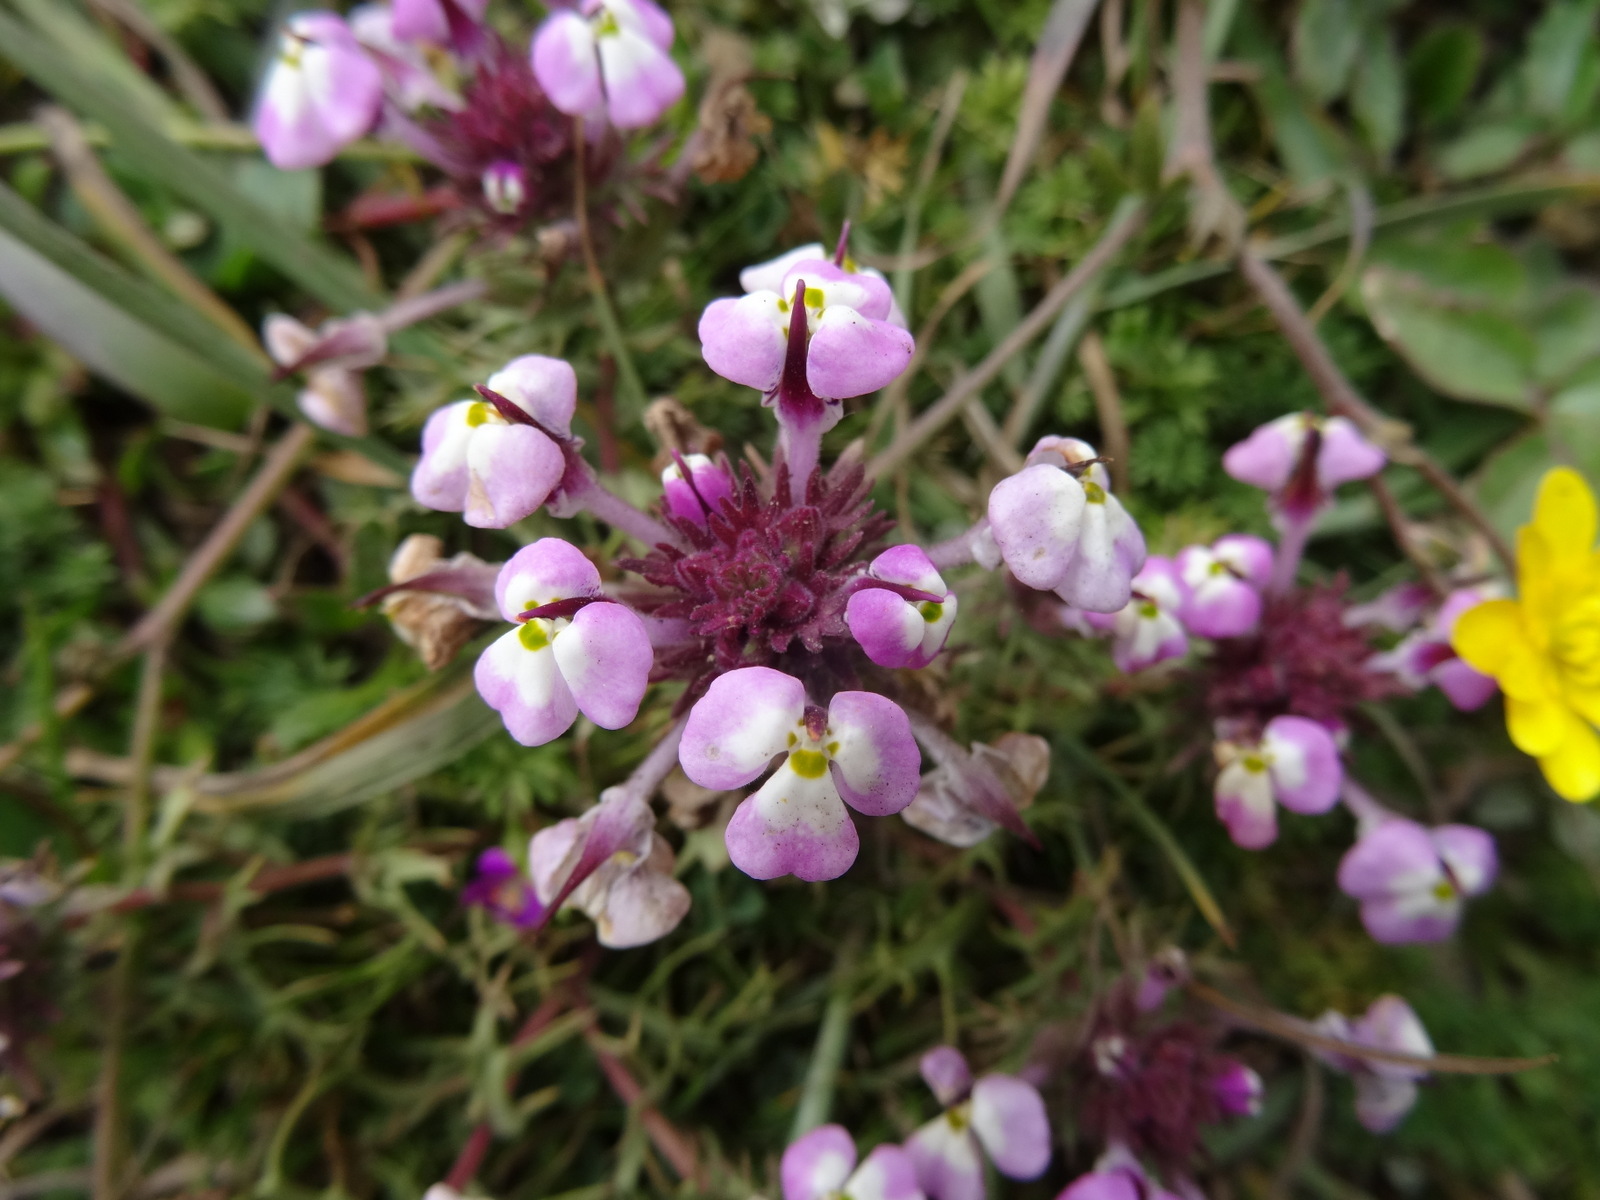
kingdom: Plantae
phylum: Tracheophyta
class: Magnoliopsida
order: Lamiales
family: Orobanchaceae
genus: Triphysaria
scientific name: Triphysaria eriantha
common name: Johnny-tuck
